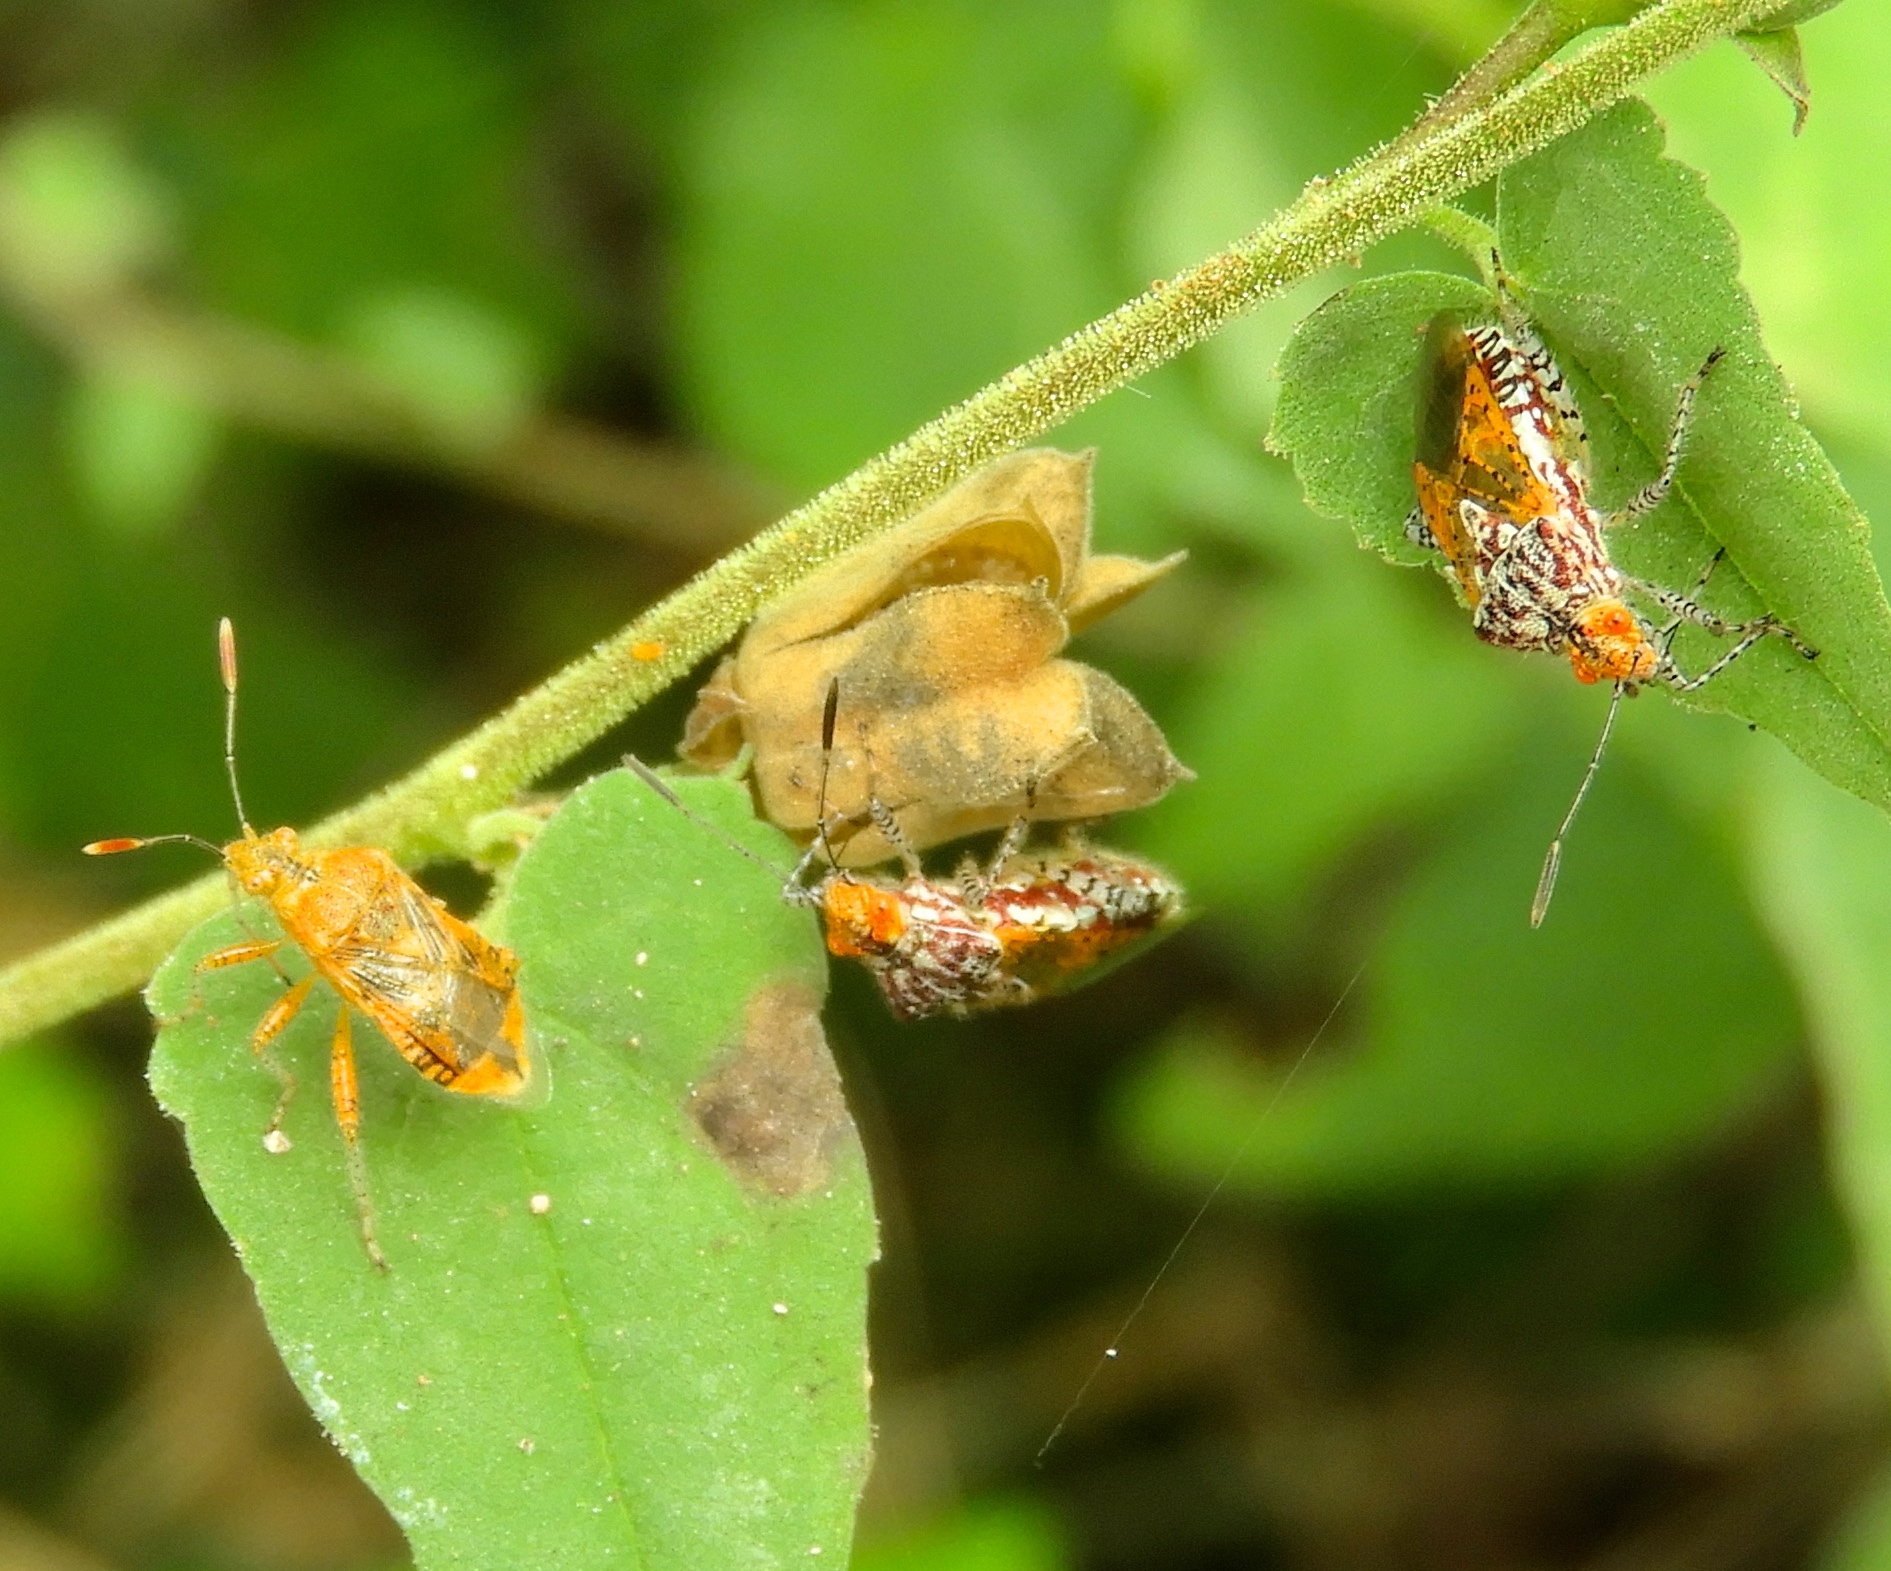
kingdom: Animalia
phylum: Arthropoda
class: Insecta
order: Hemiptera
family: Rhopalidae
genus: Niesthrea
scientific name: Niesthrea
